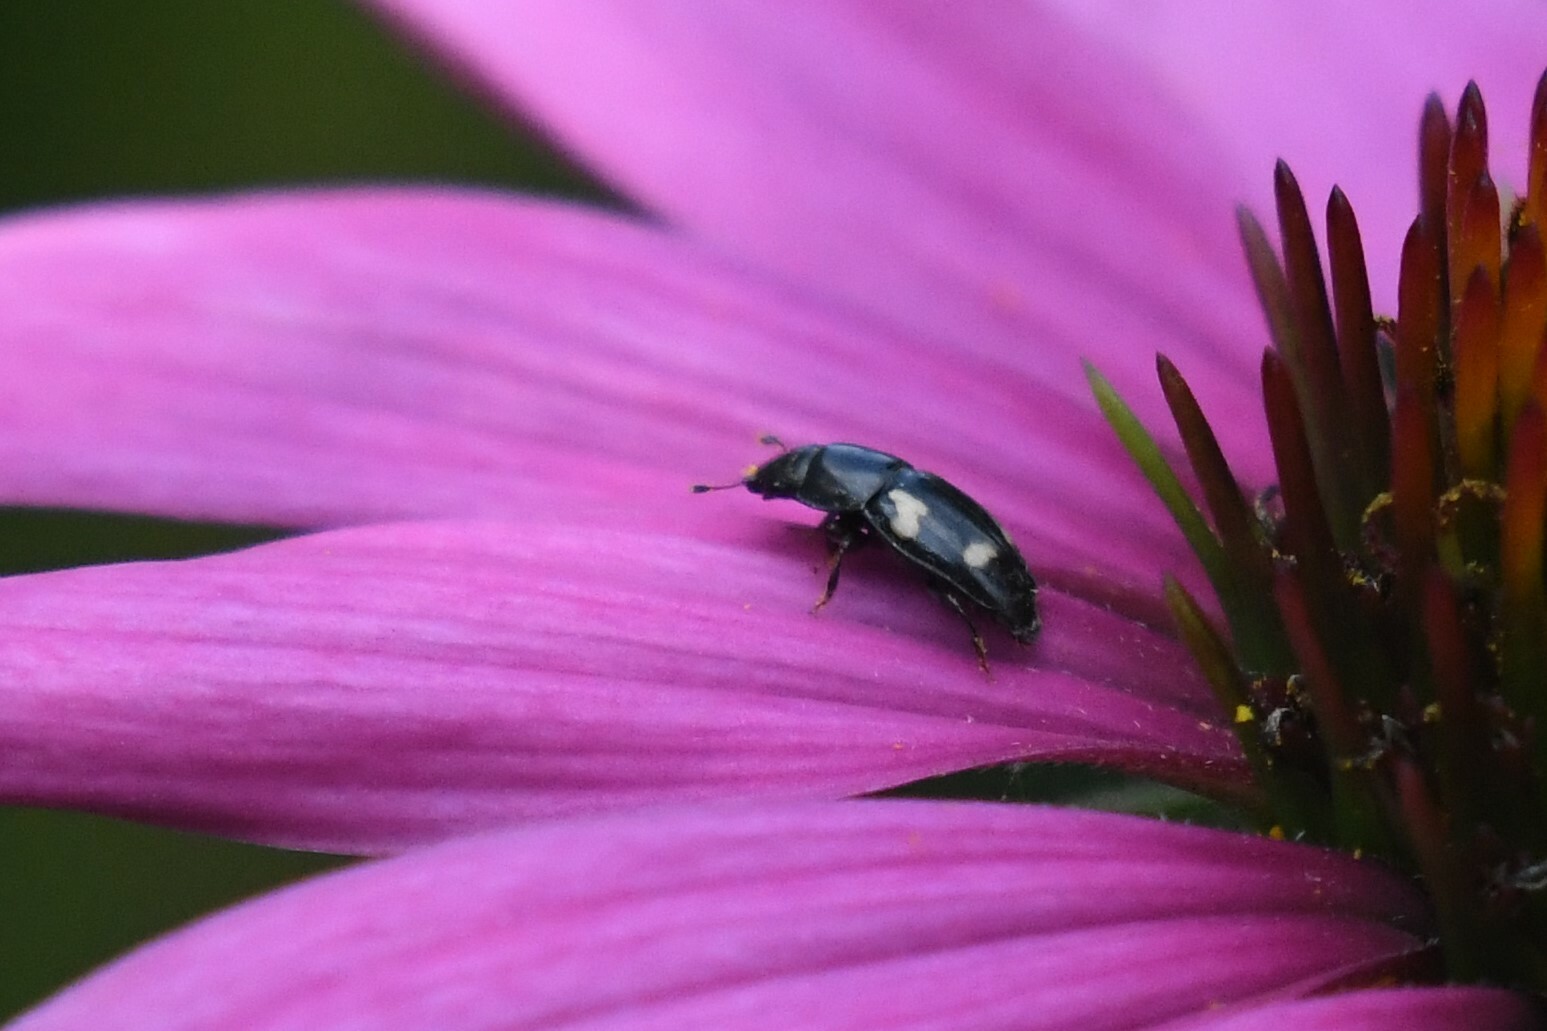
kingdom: Animalia
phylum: Arthropoda
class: Insecta
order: Coleoptera
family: Nitidulidae
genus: Glischrochilus
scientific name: Glischrochilus quadrisignatus
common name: Picnic beetle
